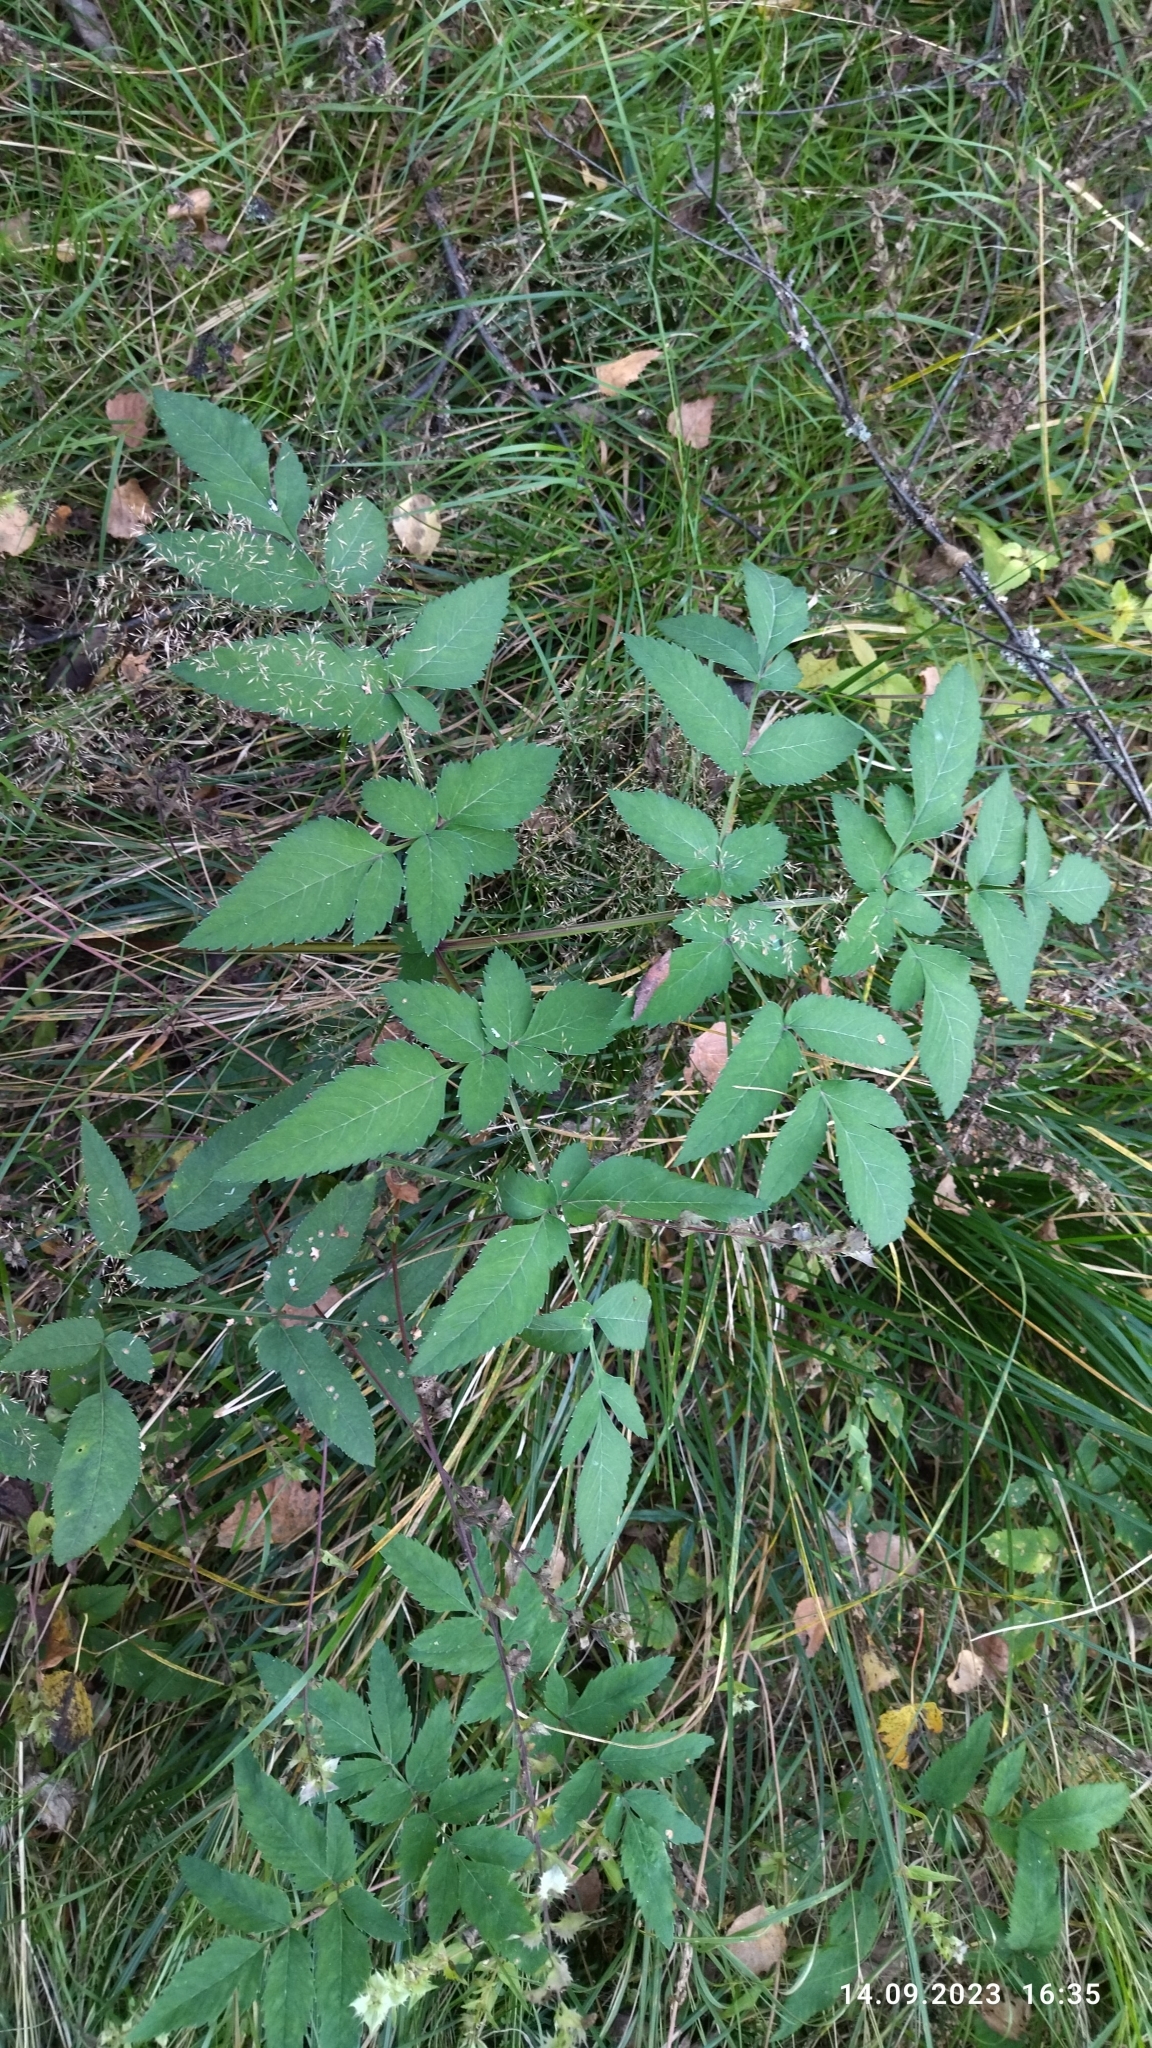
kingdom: Plantae
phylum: Tracheophyta
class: Magnoliopsida
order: Apiales
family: Apiaceae
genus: Angelica
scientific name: Angelica sylvestris
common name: Wild angelica
